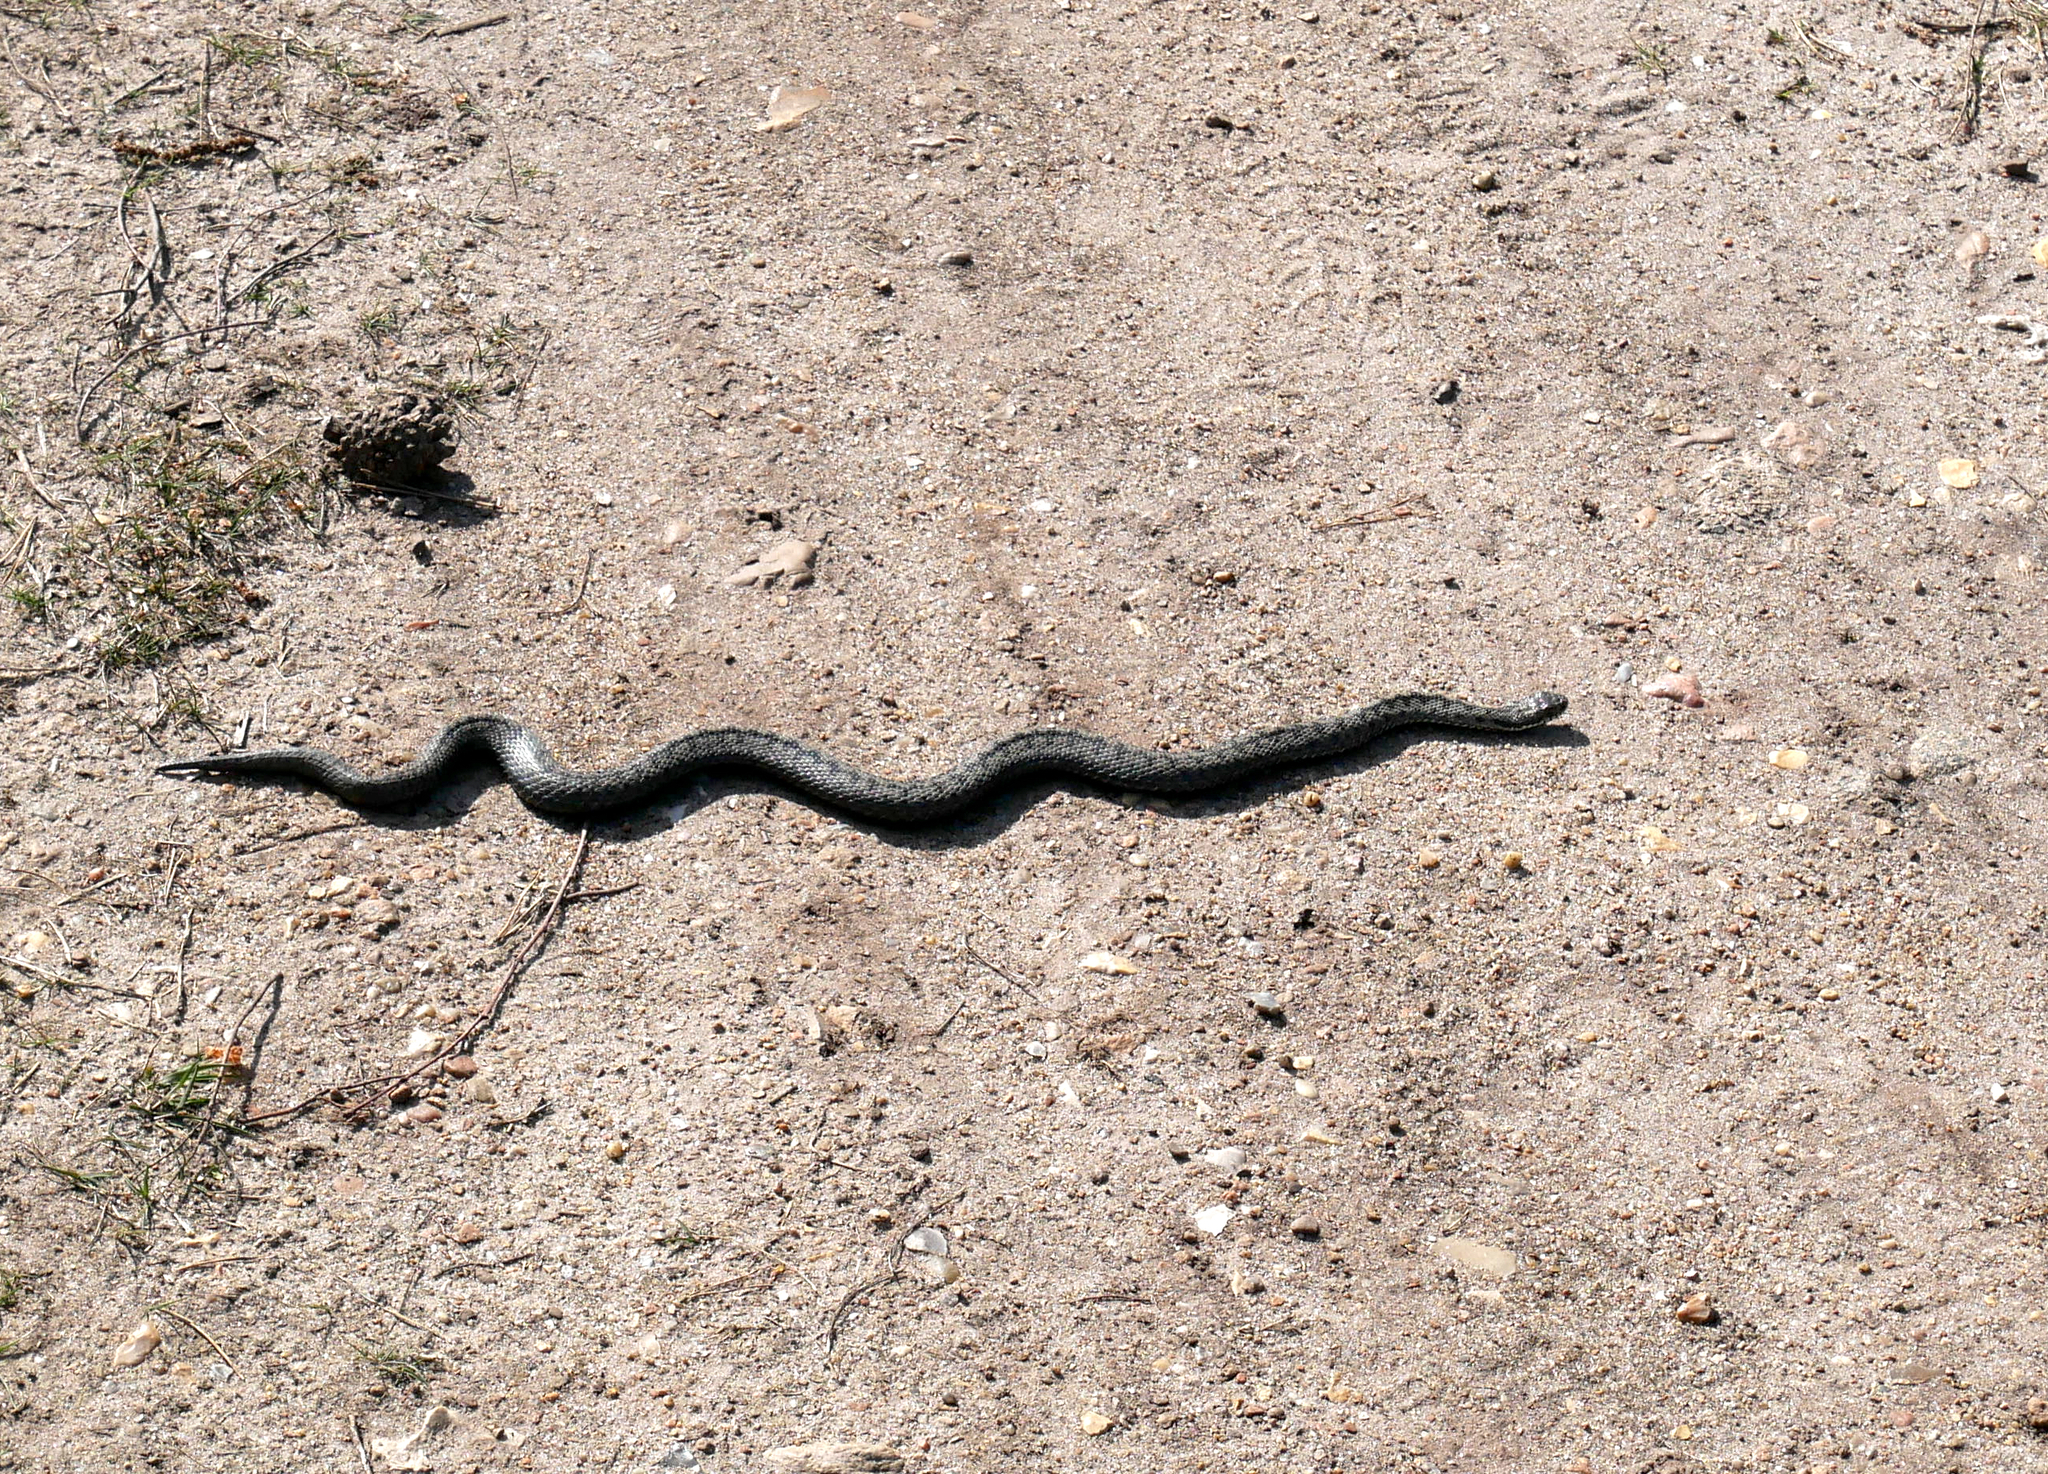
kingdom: Animalia
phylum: Chordata
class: Squamata
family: Viperidae
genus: Vipera
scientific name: Vipera berus
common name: Adder
